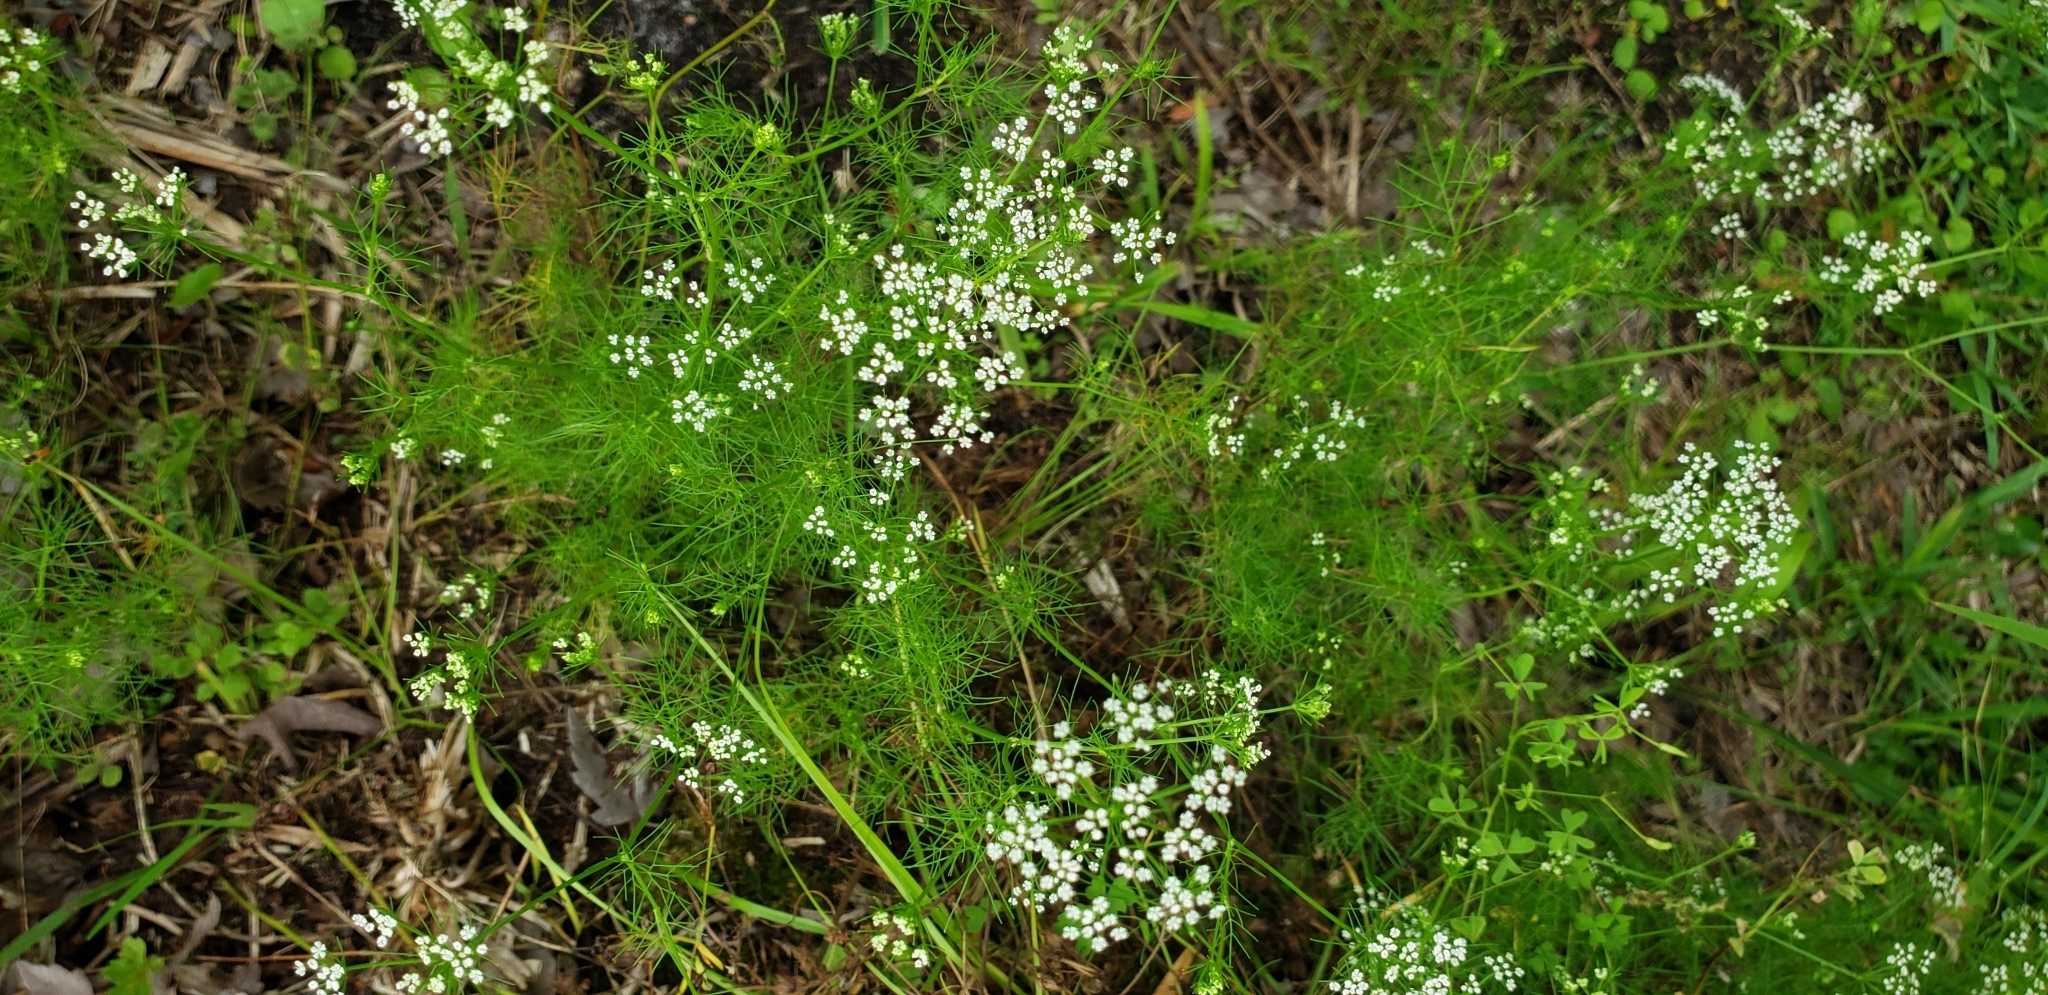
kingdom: Plantae
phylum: Tracheophyta
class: Magnoliopsida
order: Apiales
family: Apiaceae
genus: Ptilimnium
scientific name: Ptilimnium capillaceum
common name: Herbwilliam
